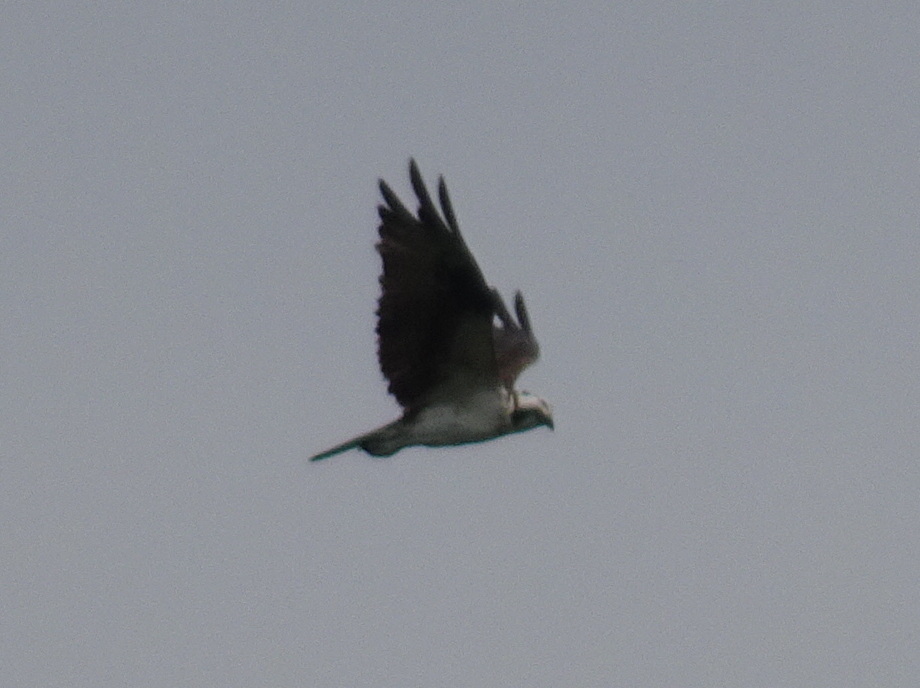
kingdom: Animalia
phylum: Chordata
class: Aves
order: Accipitriformes
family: Pandionidae
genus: Pandion
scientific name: Pandion haliaetus
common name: Osprey
